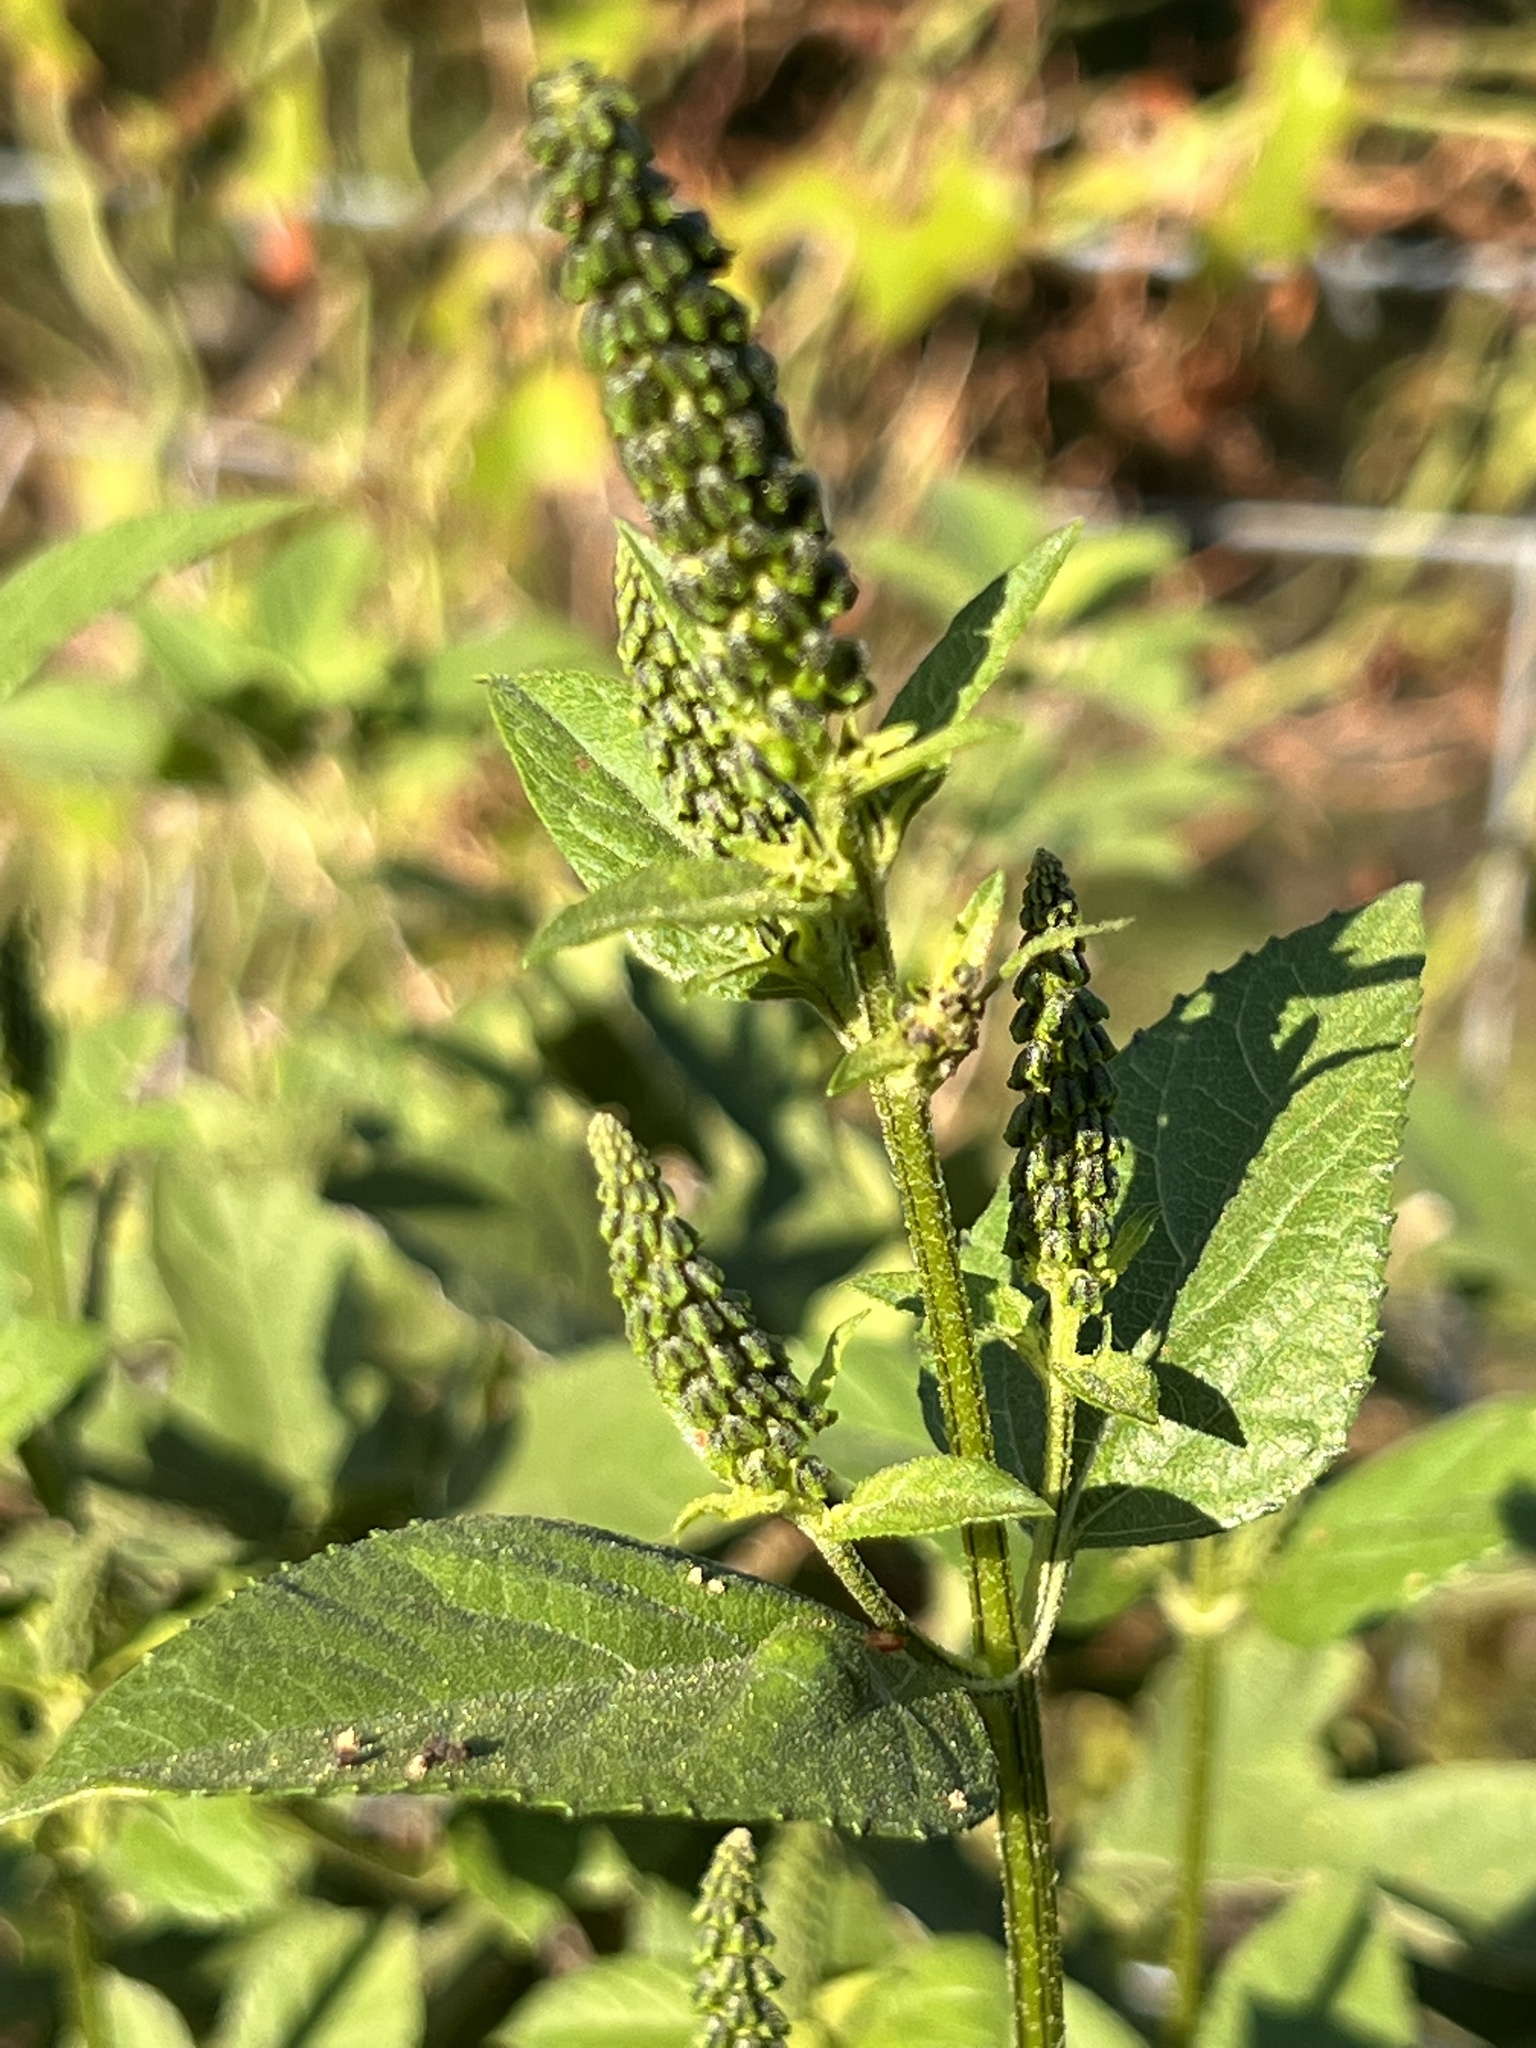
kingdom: Plantae
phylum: Tracheophyta
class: Magnoliopsida
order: Asterales
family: Asteraceae
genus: Ambrosia
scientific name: Ambrosia trifida
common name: Giant ragweed
